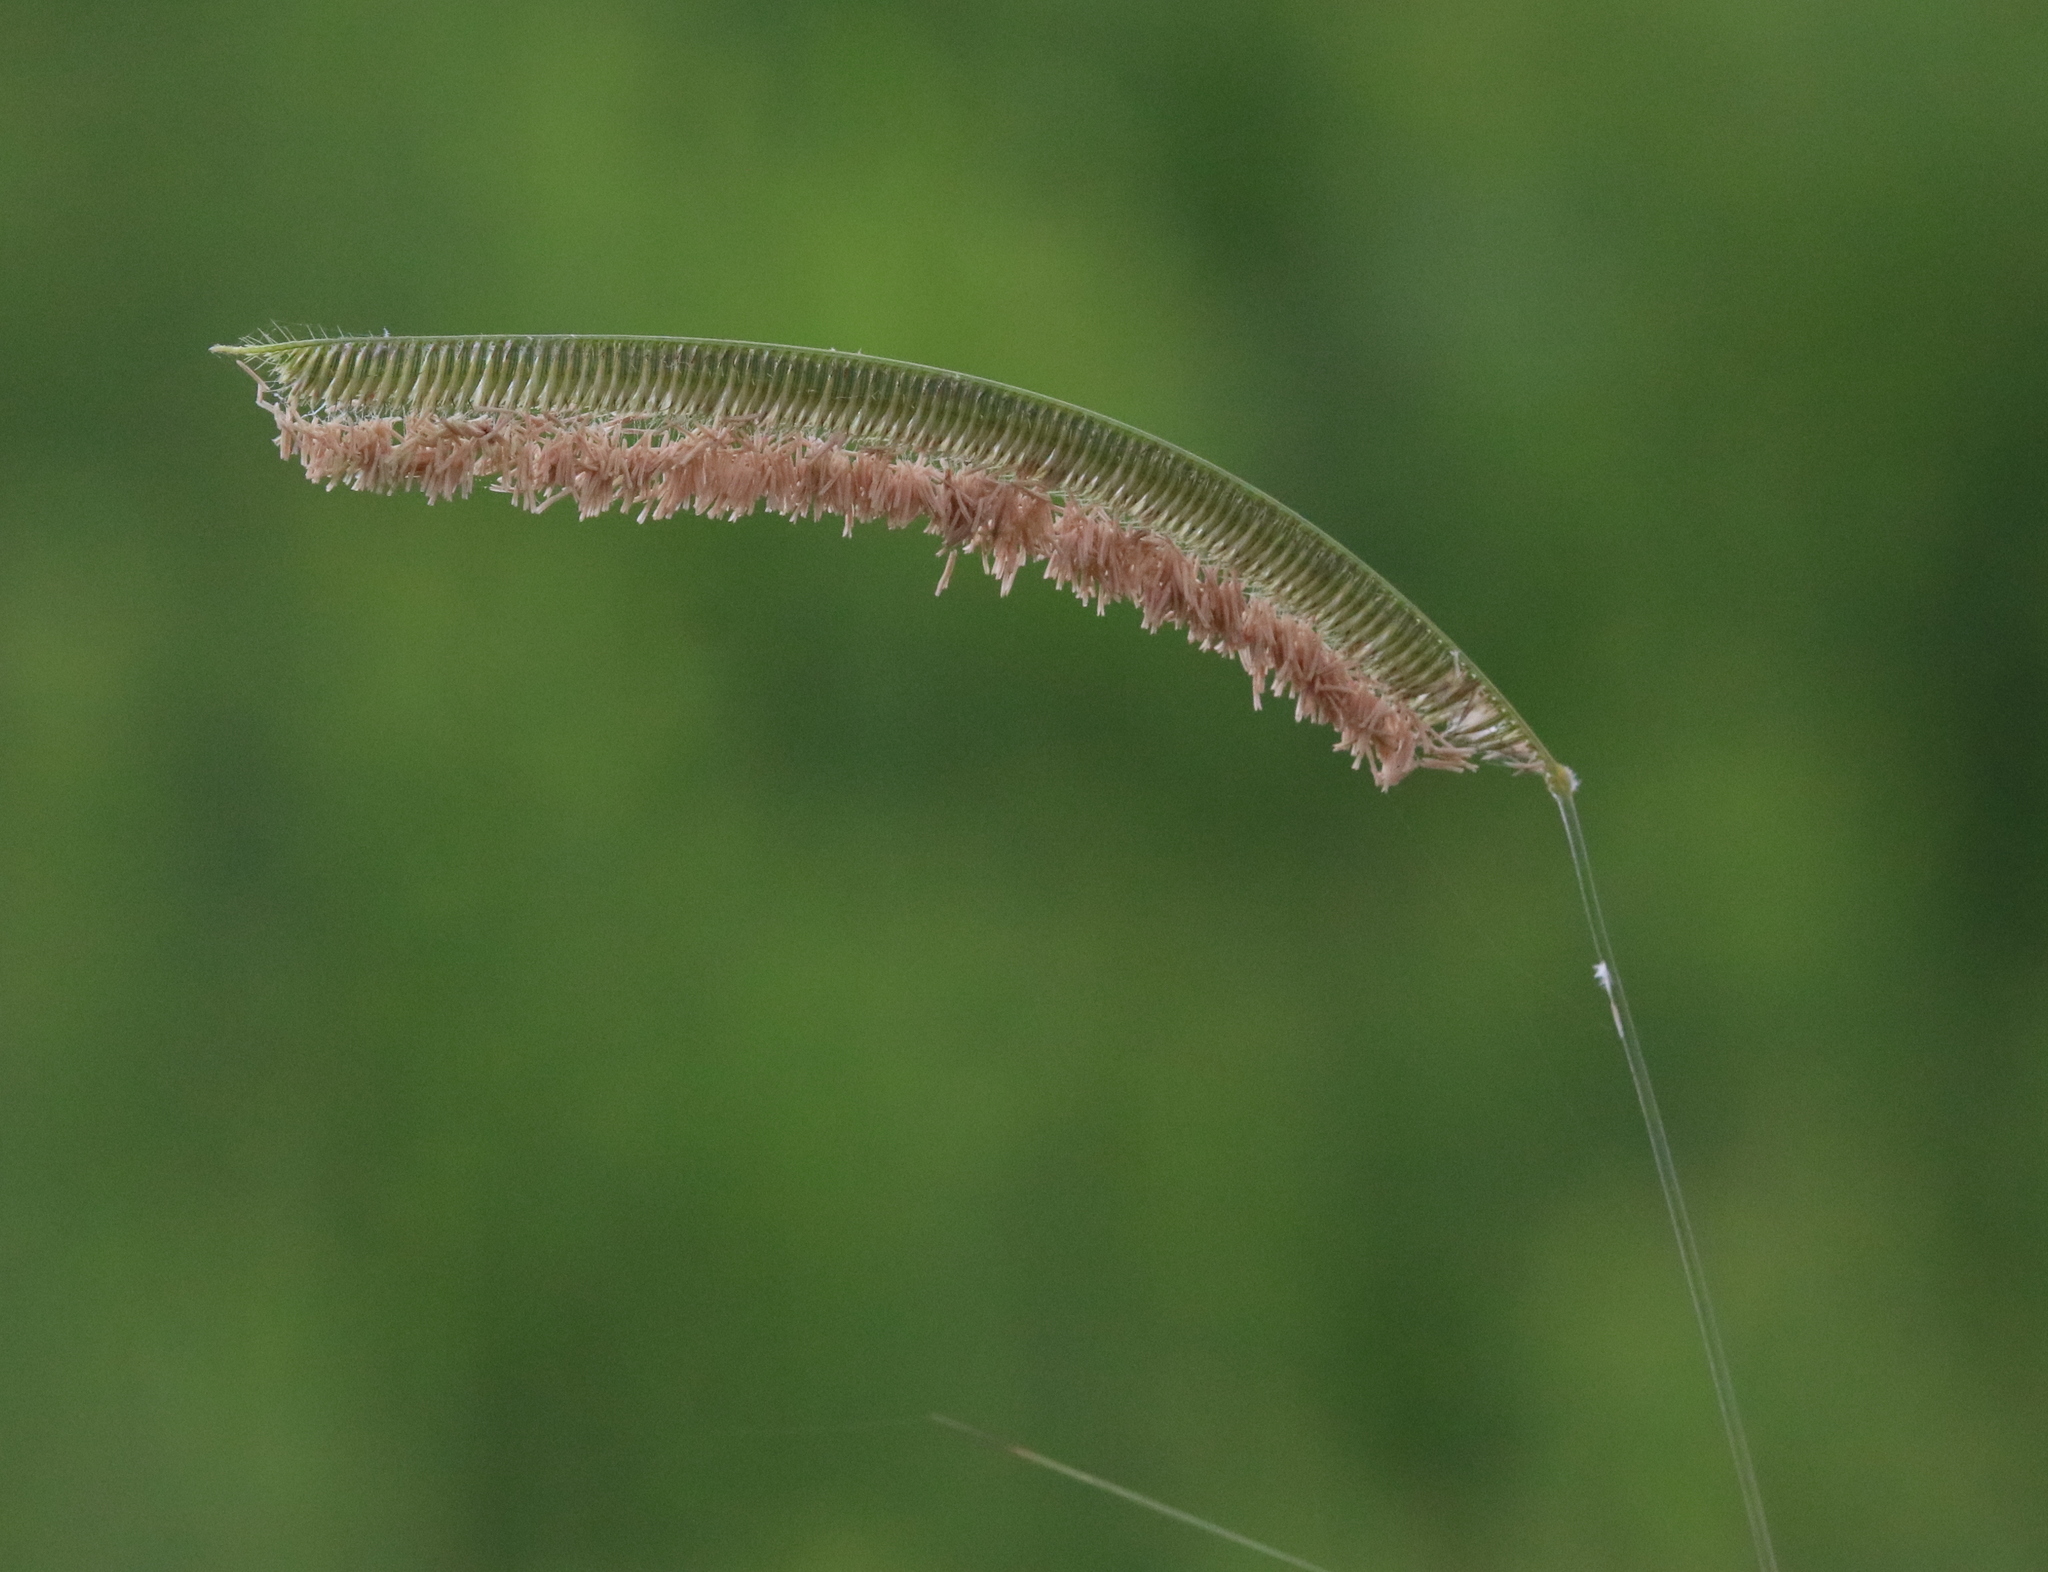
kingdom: Plantae
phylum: Tracheophyta
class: Liliopsida
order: Poales
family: Poaceae
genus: Ctenium
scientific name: Ctenium aromaticum
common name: Toothache grass
